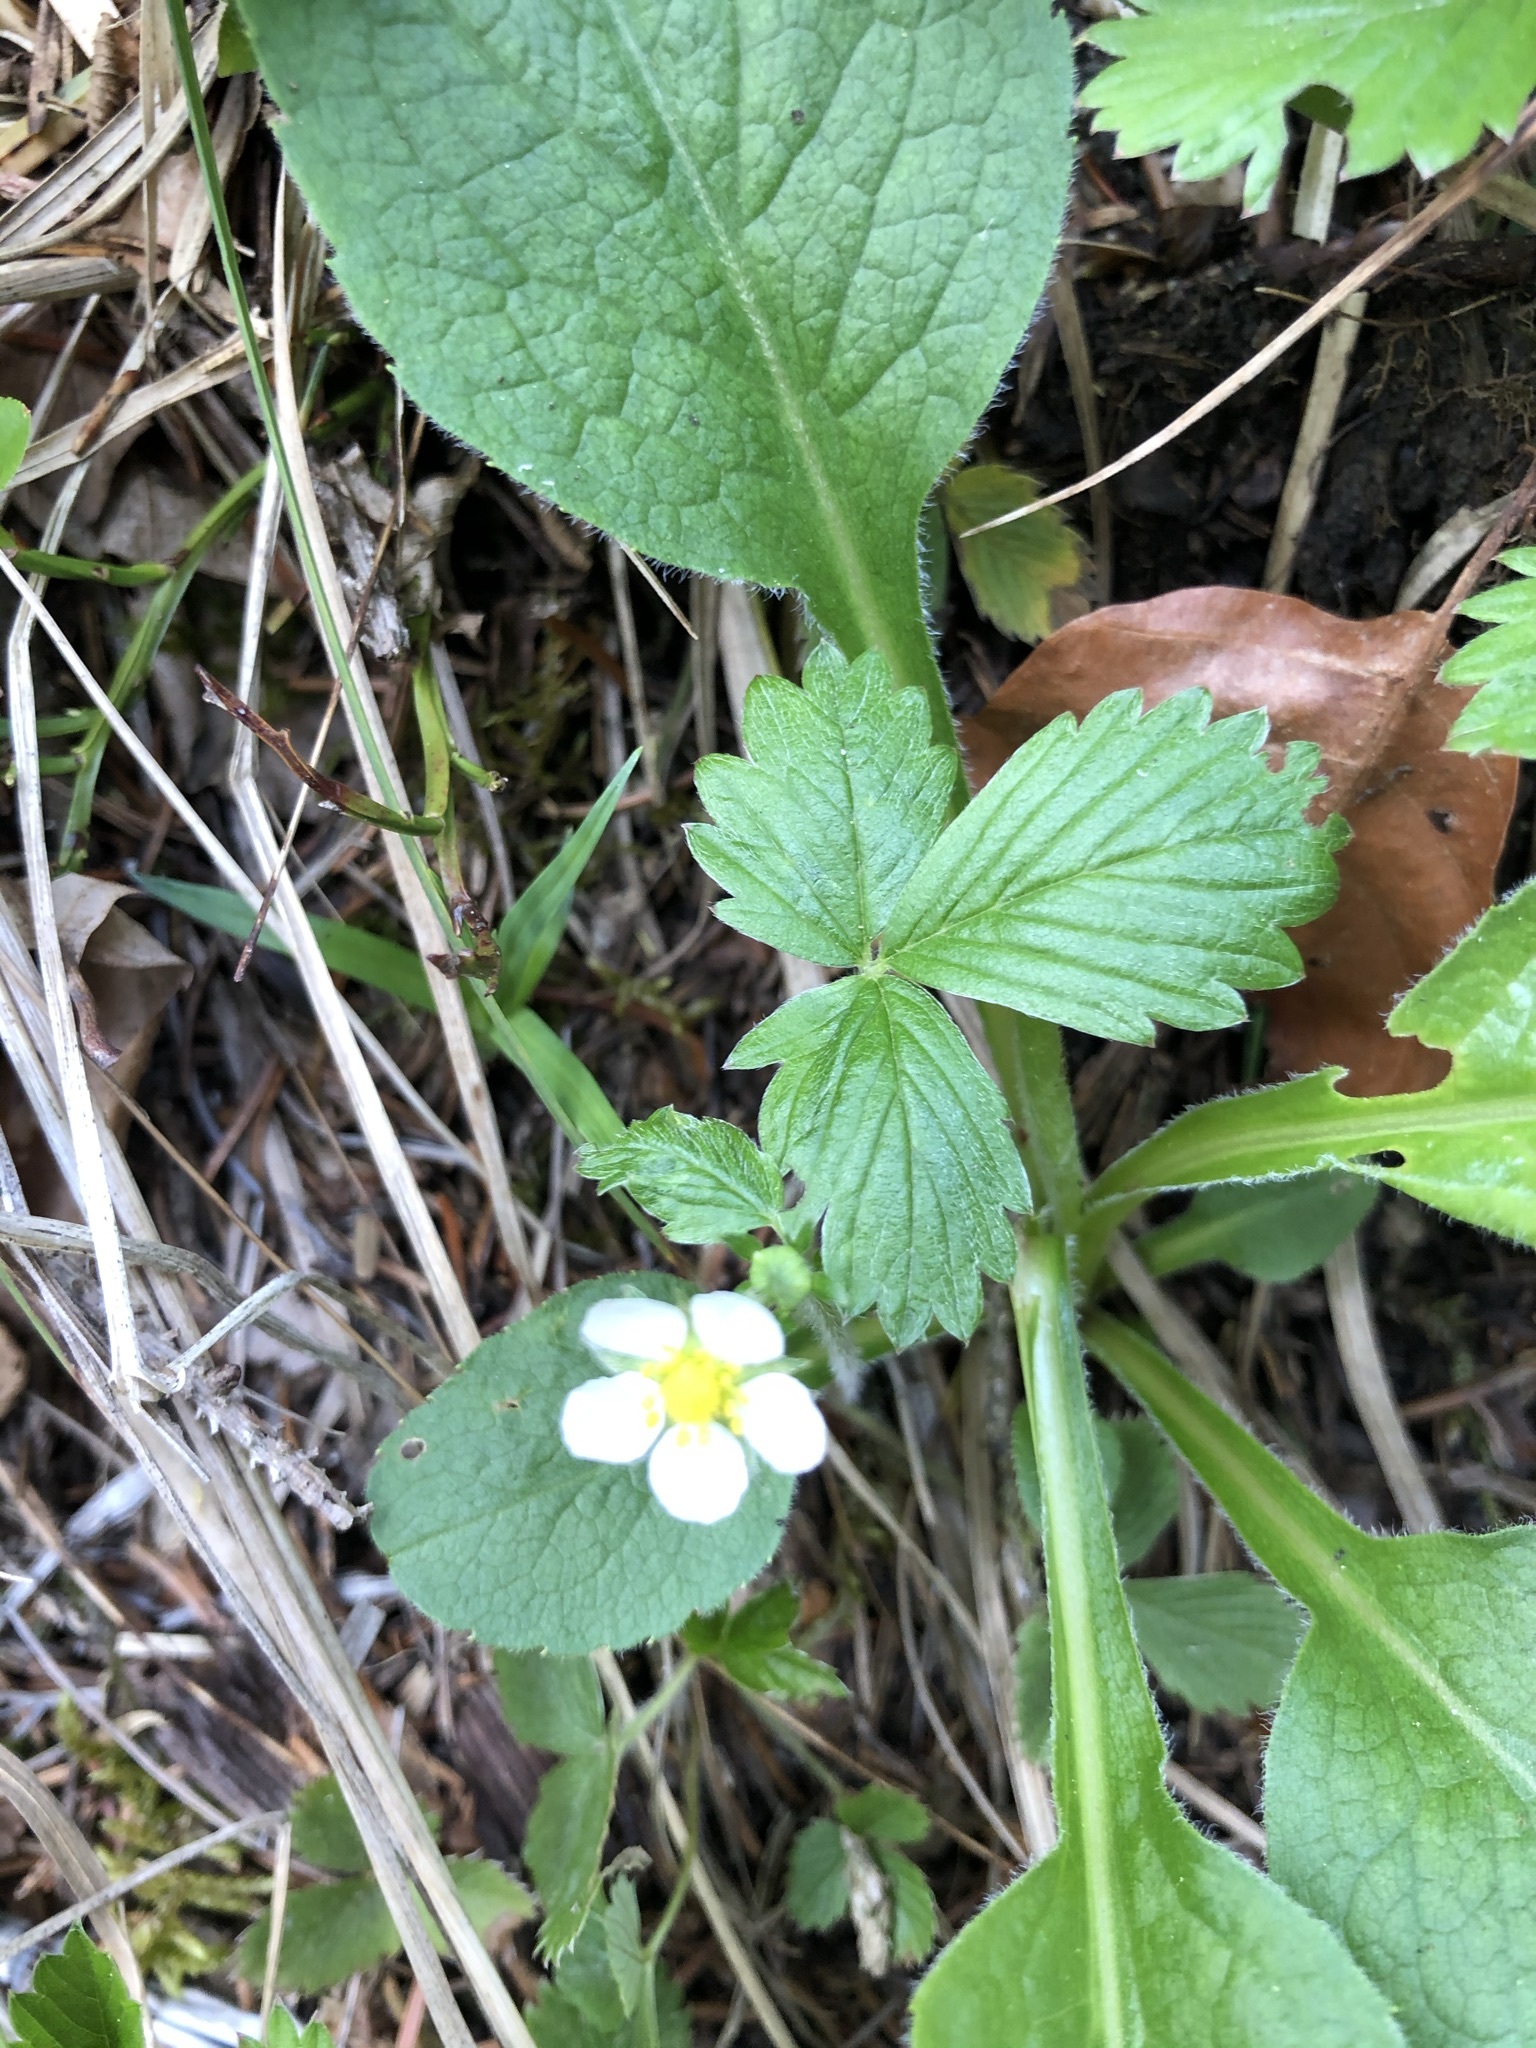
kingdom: Plantae
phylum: Tracheophyta
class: Magnoliopsida
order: Rosales
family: Rosaceae
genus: Fragaria
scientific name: Fragaria vesca
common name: Wild strawberry
